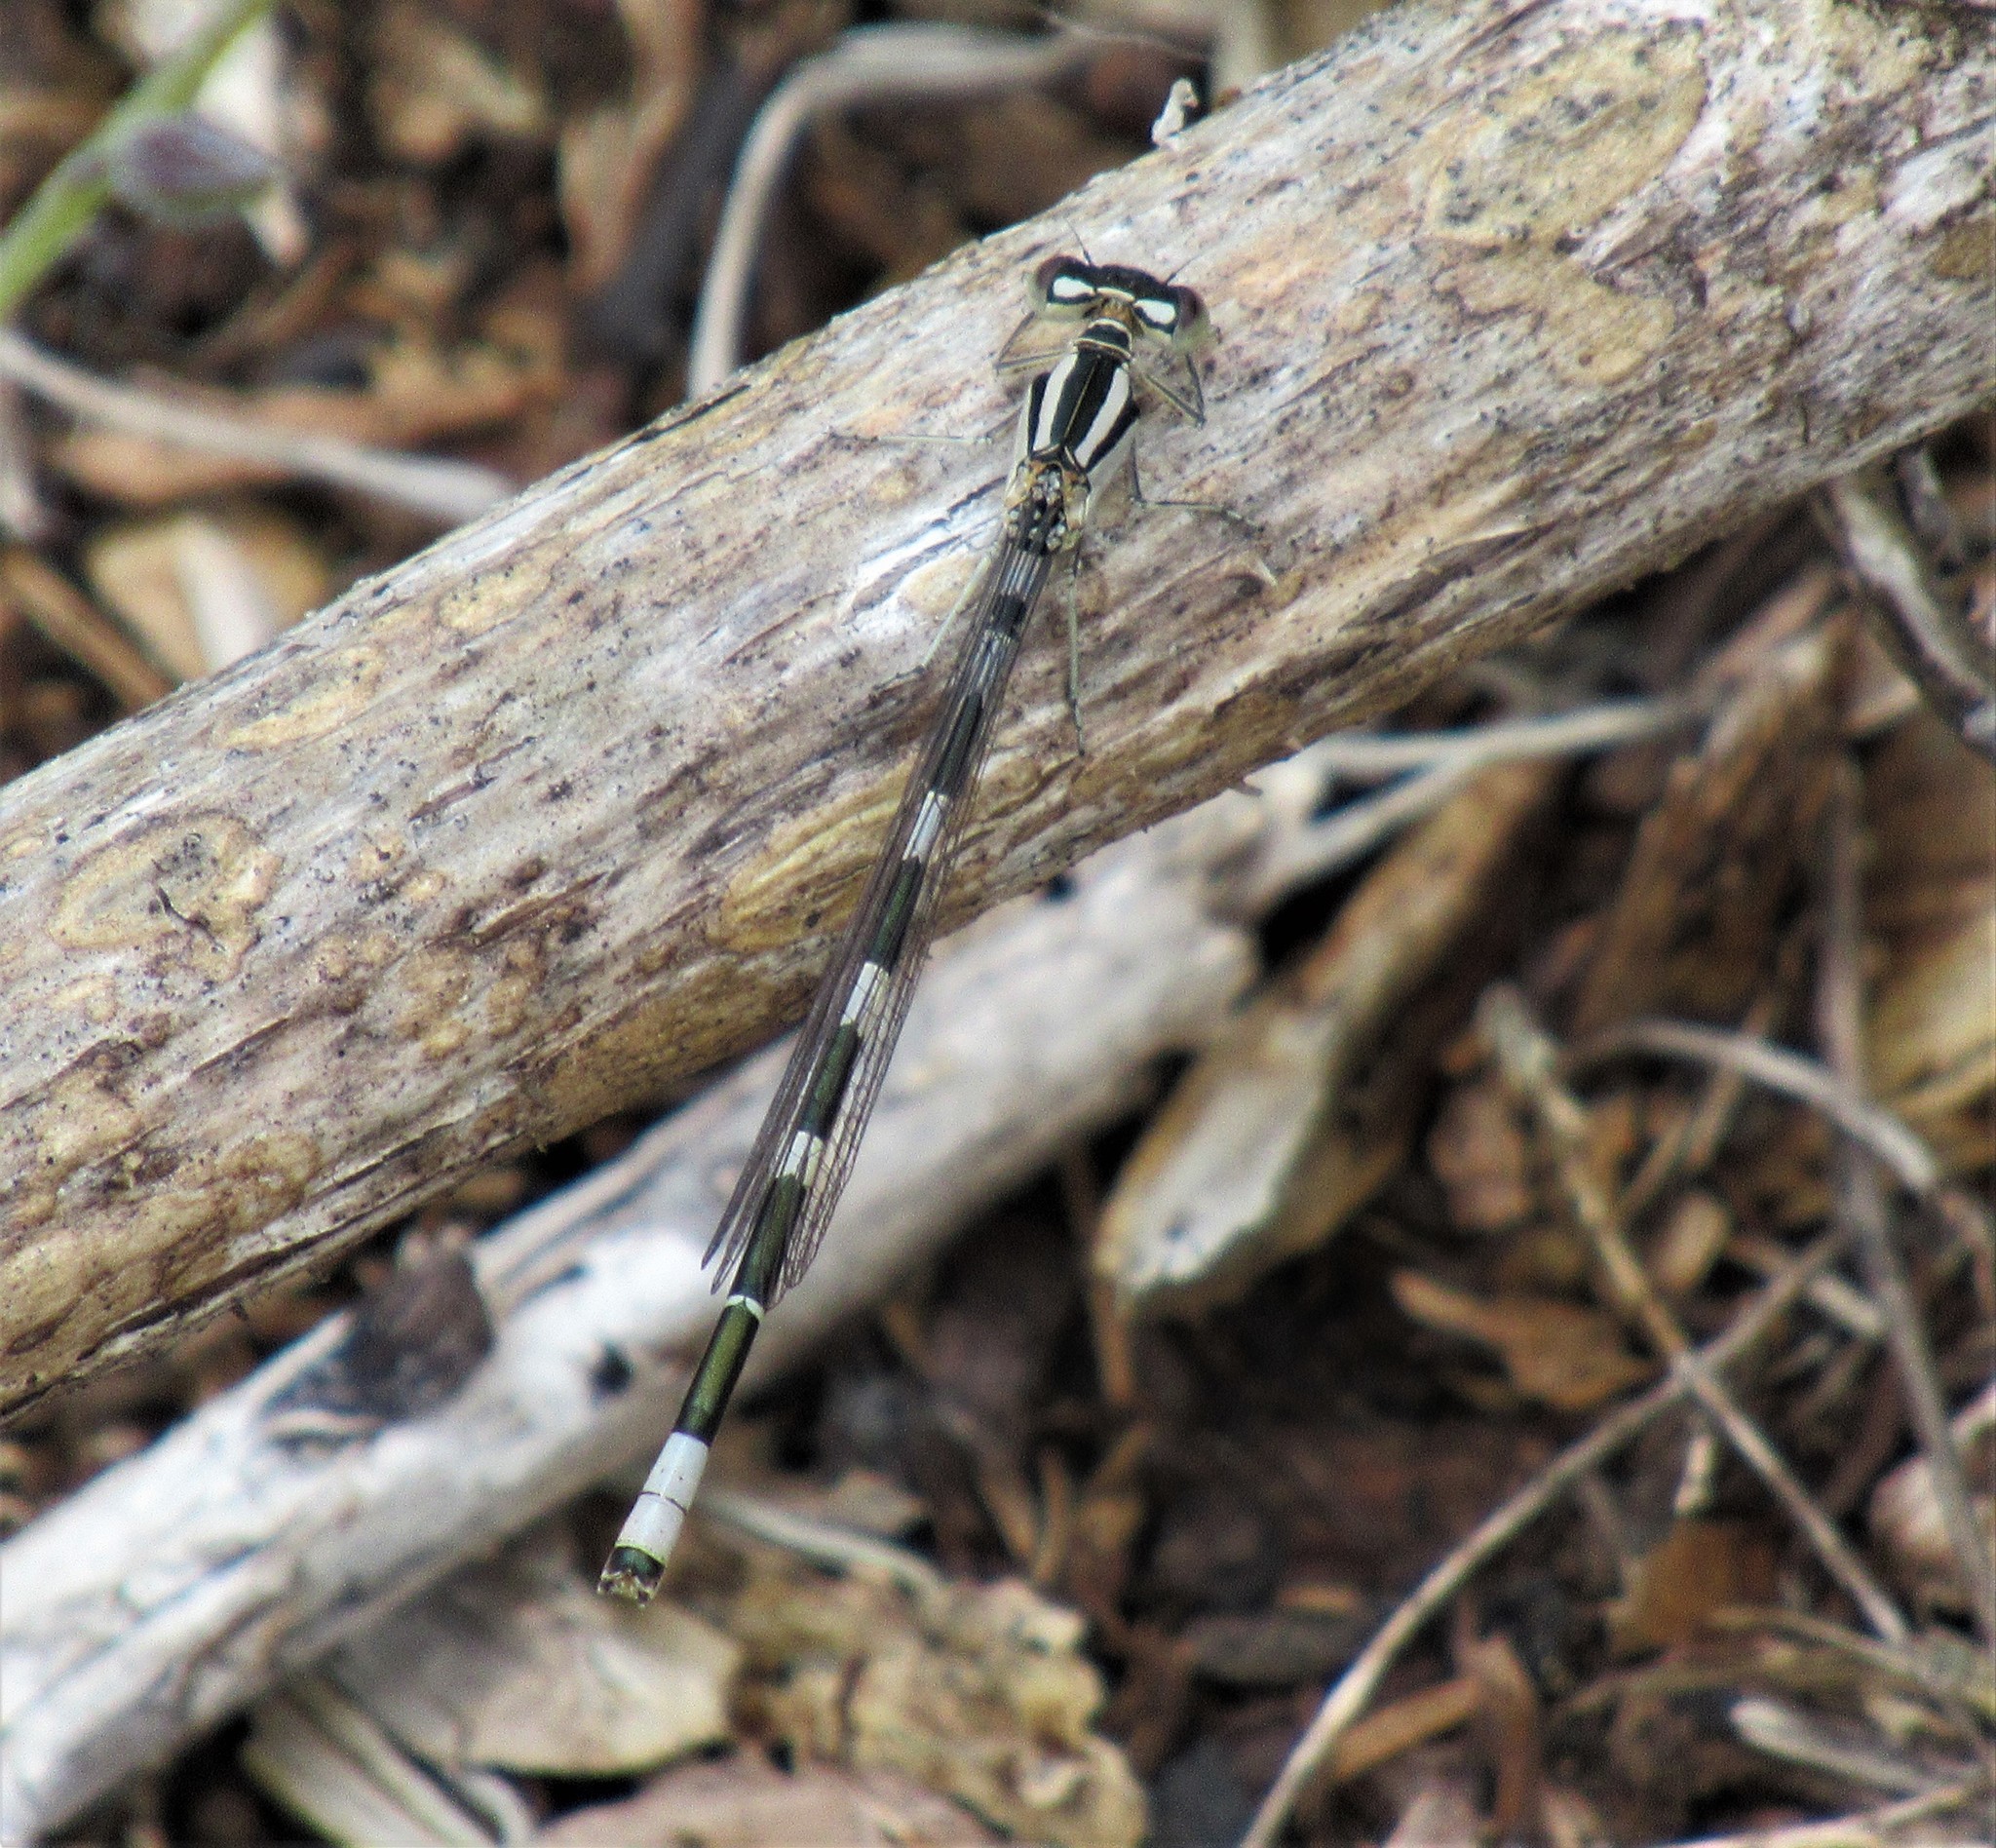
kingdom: Animalia
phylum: Arthropoda
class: Insecta
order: Odonata
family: Coenagrionidae
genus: Enallagma
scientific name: Enallagma carunculatum
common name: Tule bluet
